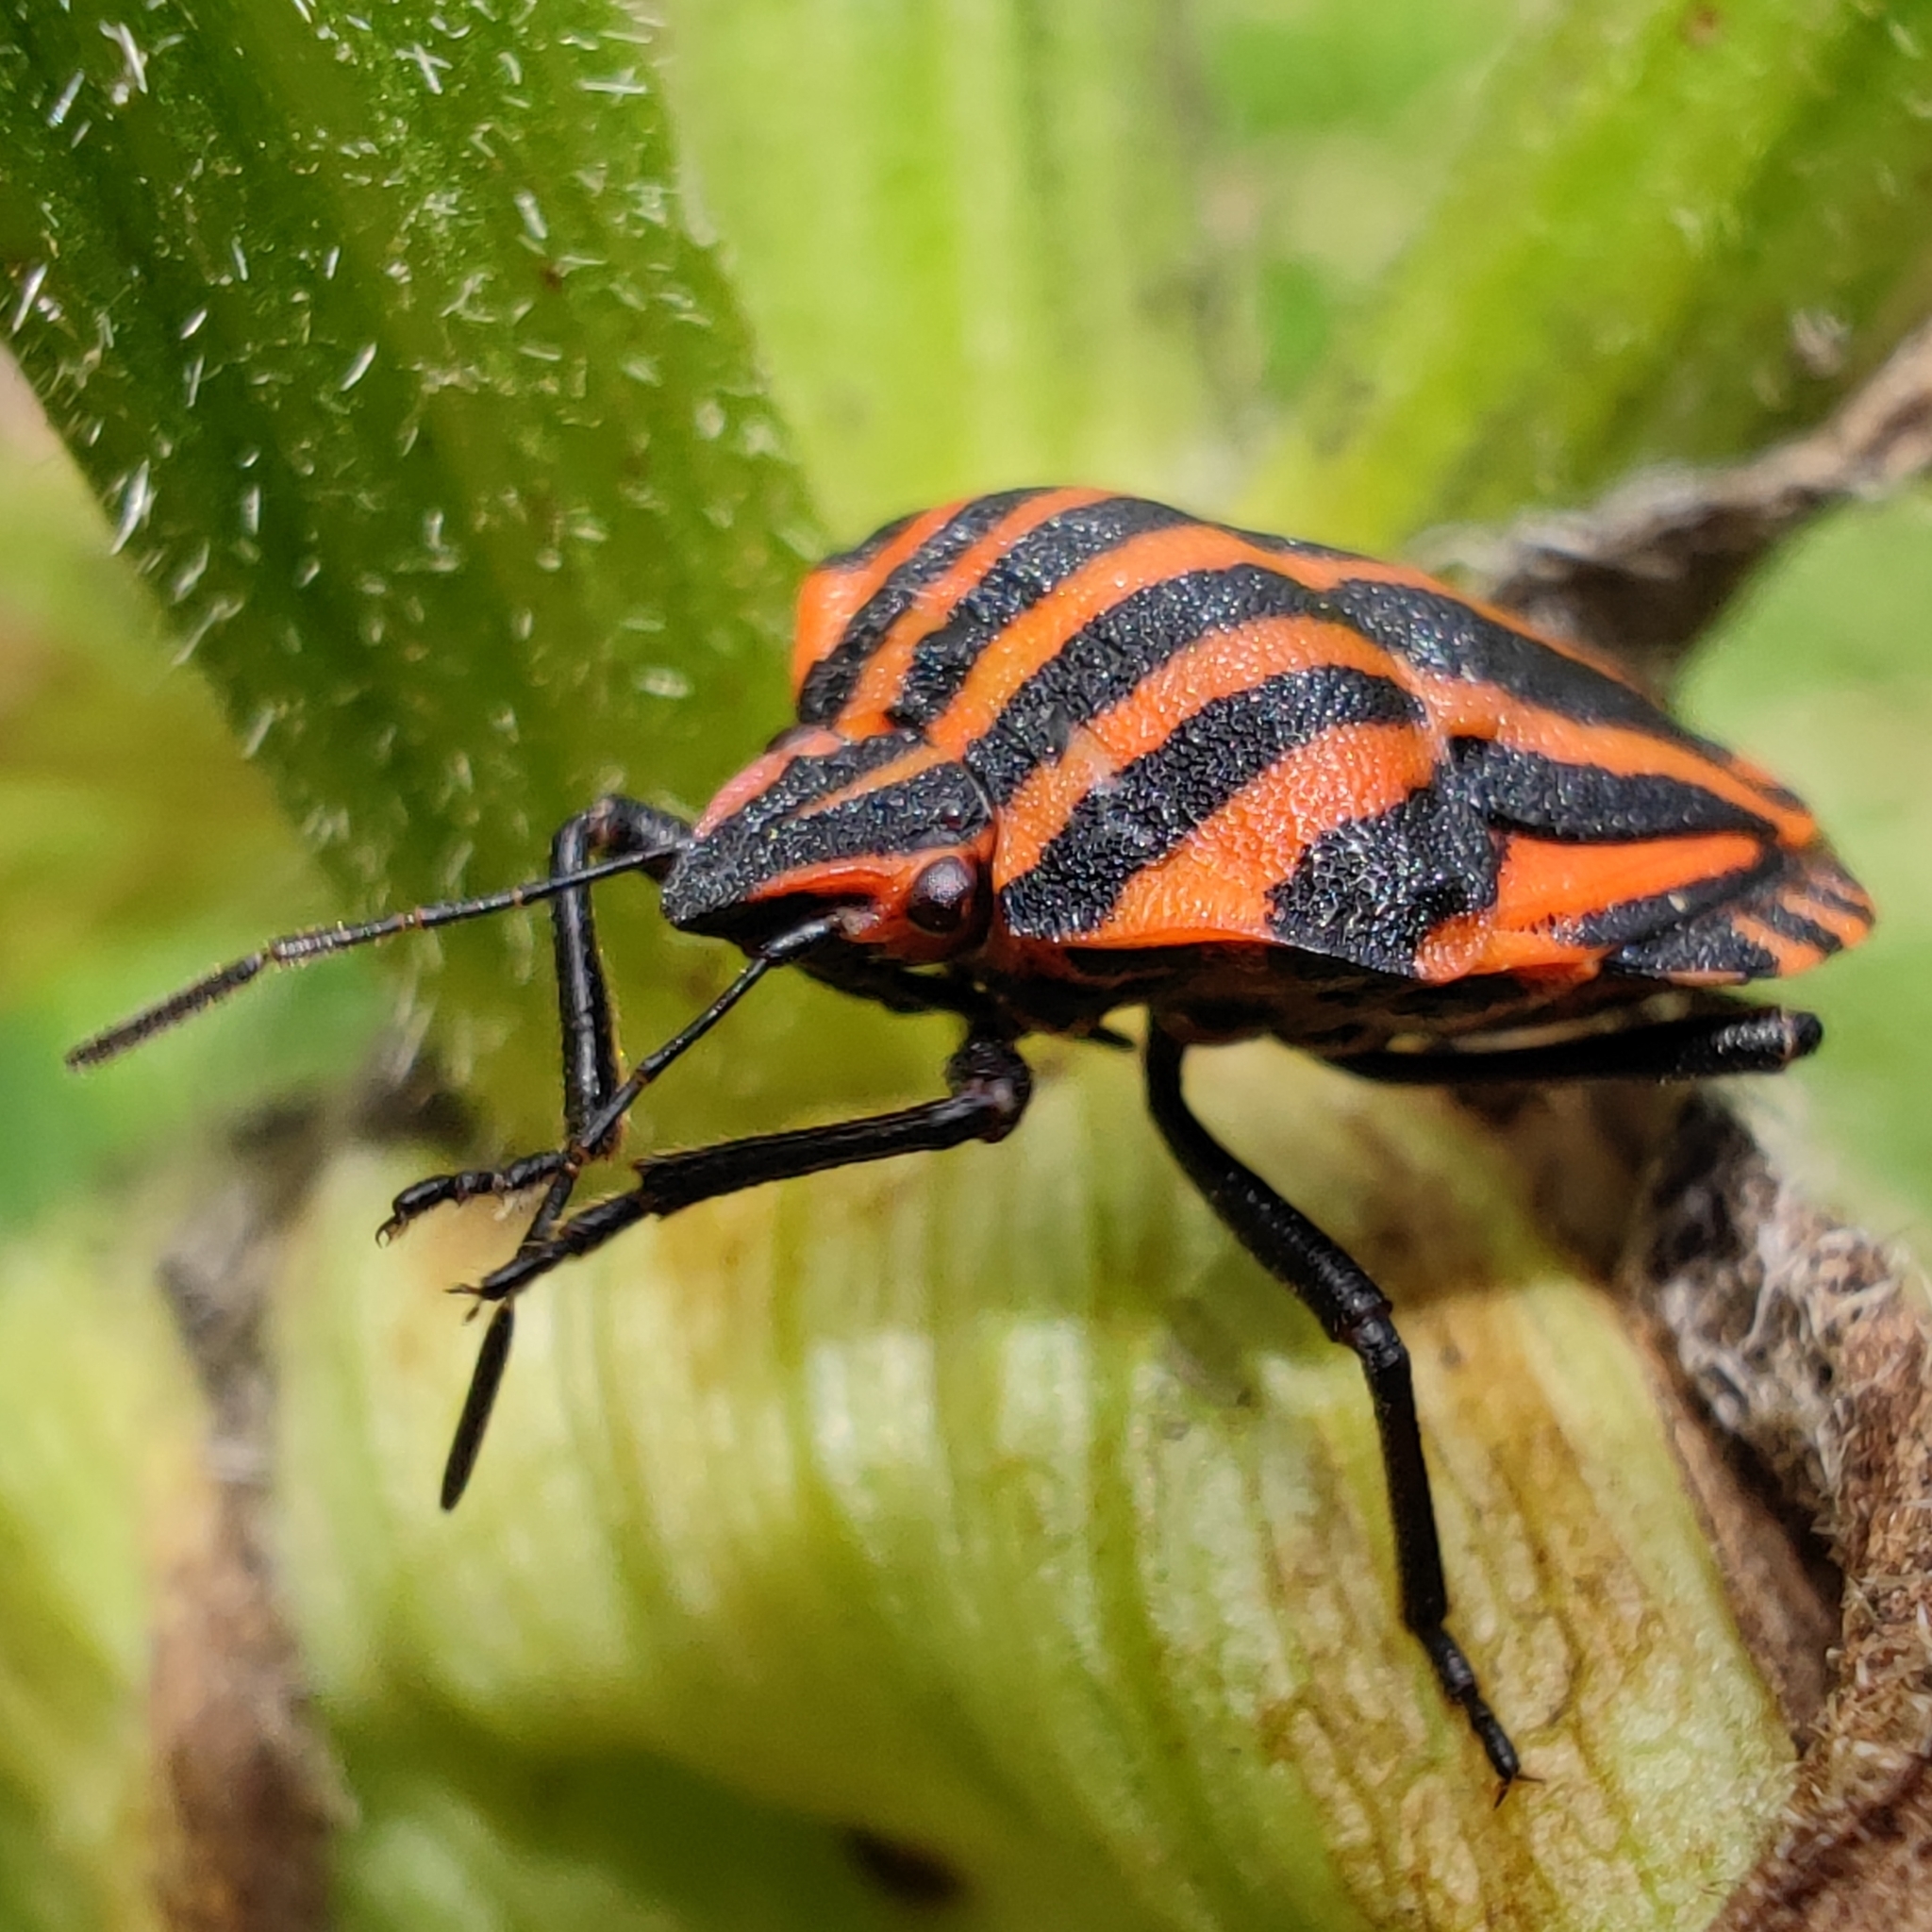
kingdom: Animalia
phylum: Arthropoda
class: Insecta
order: Hemiptera
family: Pentatomidae
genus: Graphosoma
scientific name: Graphosoma italicum
